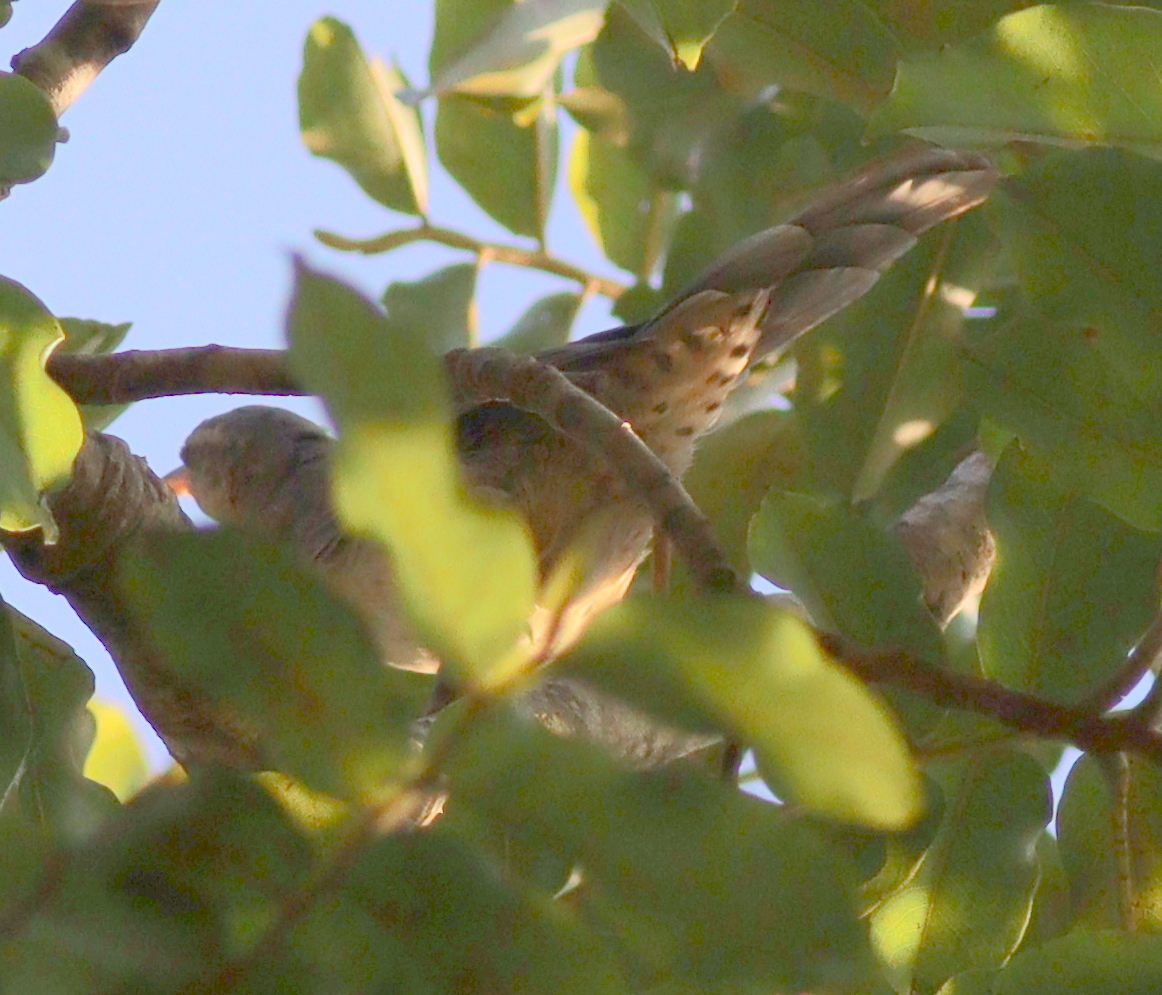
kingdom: Animalia
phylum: Chordata
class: Aves
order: Passeriformes
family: Troglodytidae
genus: Campylorhynchus
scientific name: Campylorhynchus turdinus
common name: Thrush-like wren
